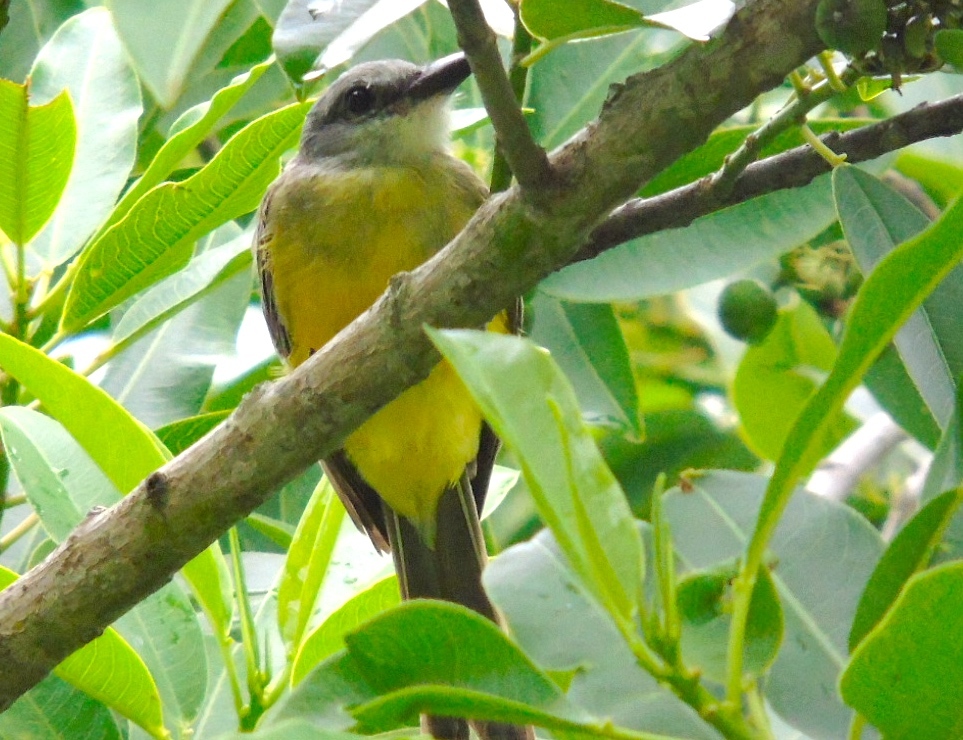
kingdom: Animalia
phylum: Chordata
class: Aves
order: Passeriformes
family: Tyrannidae
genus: Tyrannus
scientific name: Tyrannus melancholicus
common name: Tropical kingbird
